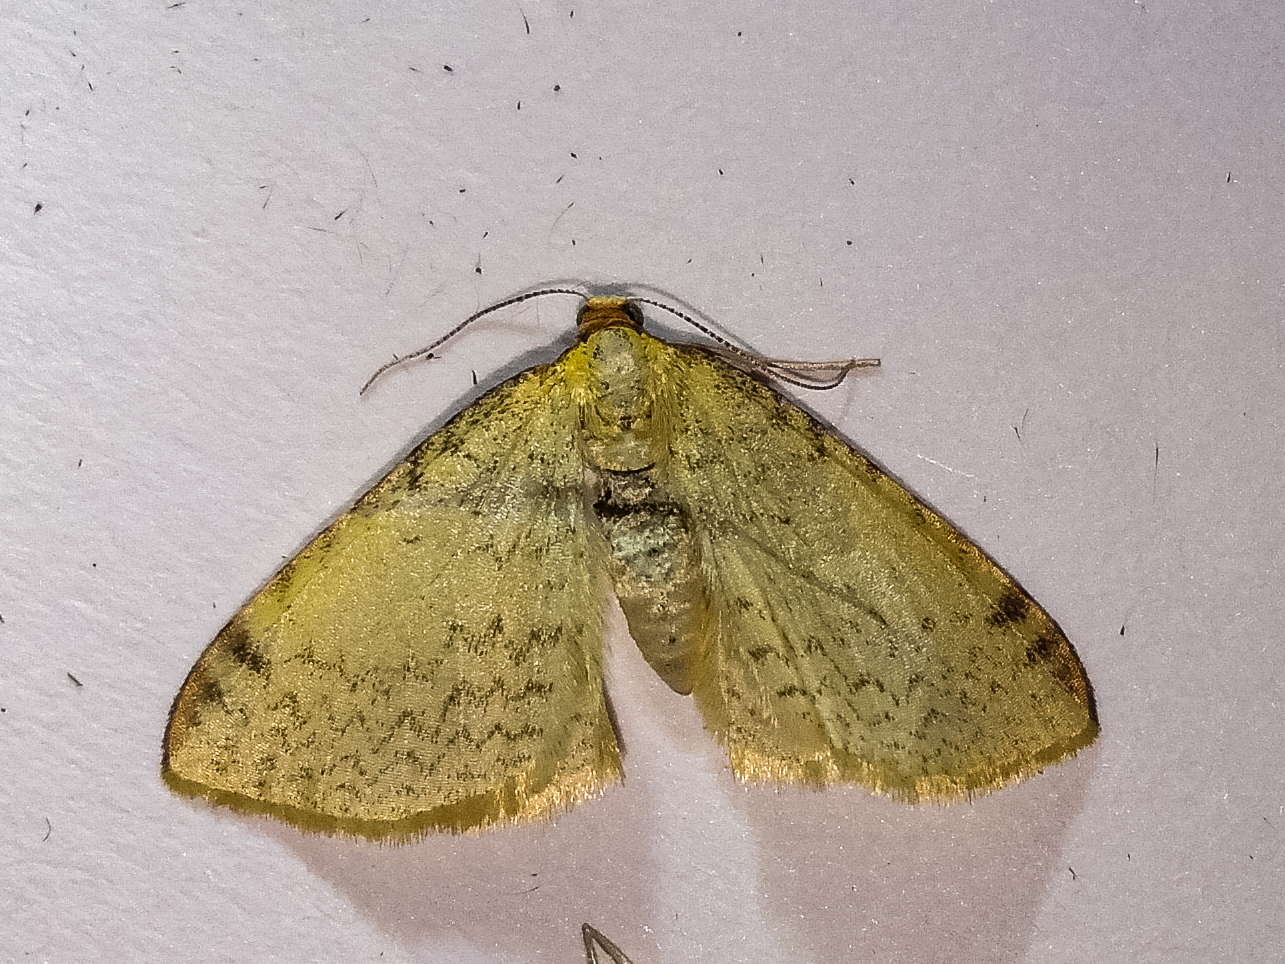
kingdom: Animalia
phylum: Arthropoda
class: Insecta
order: Lepidoptera
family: Geometridae
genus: Epiphryne
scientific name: Epiphryne undosata
